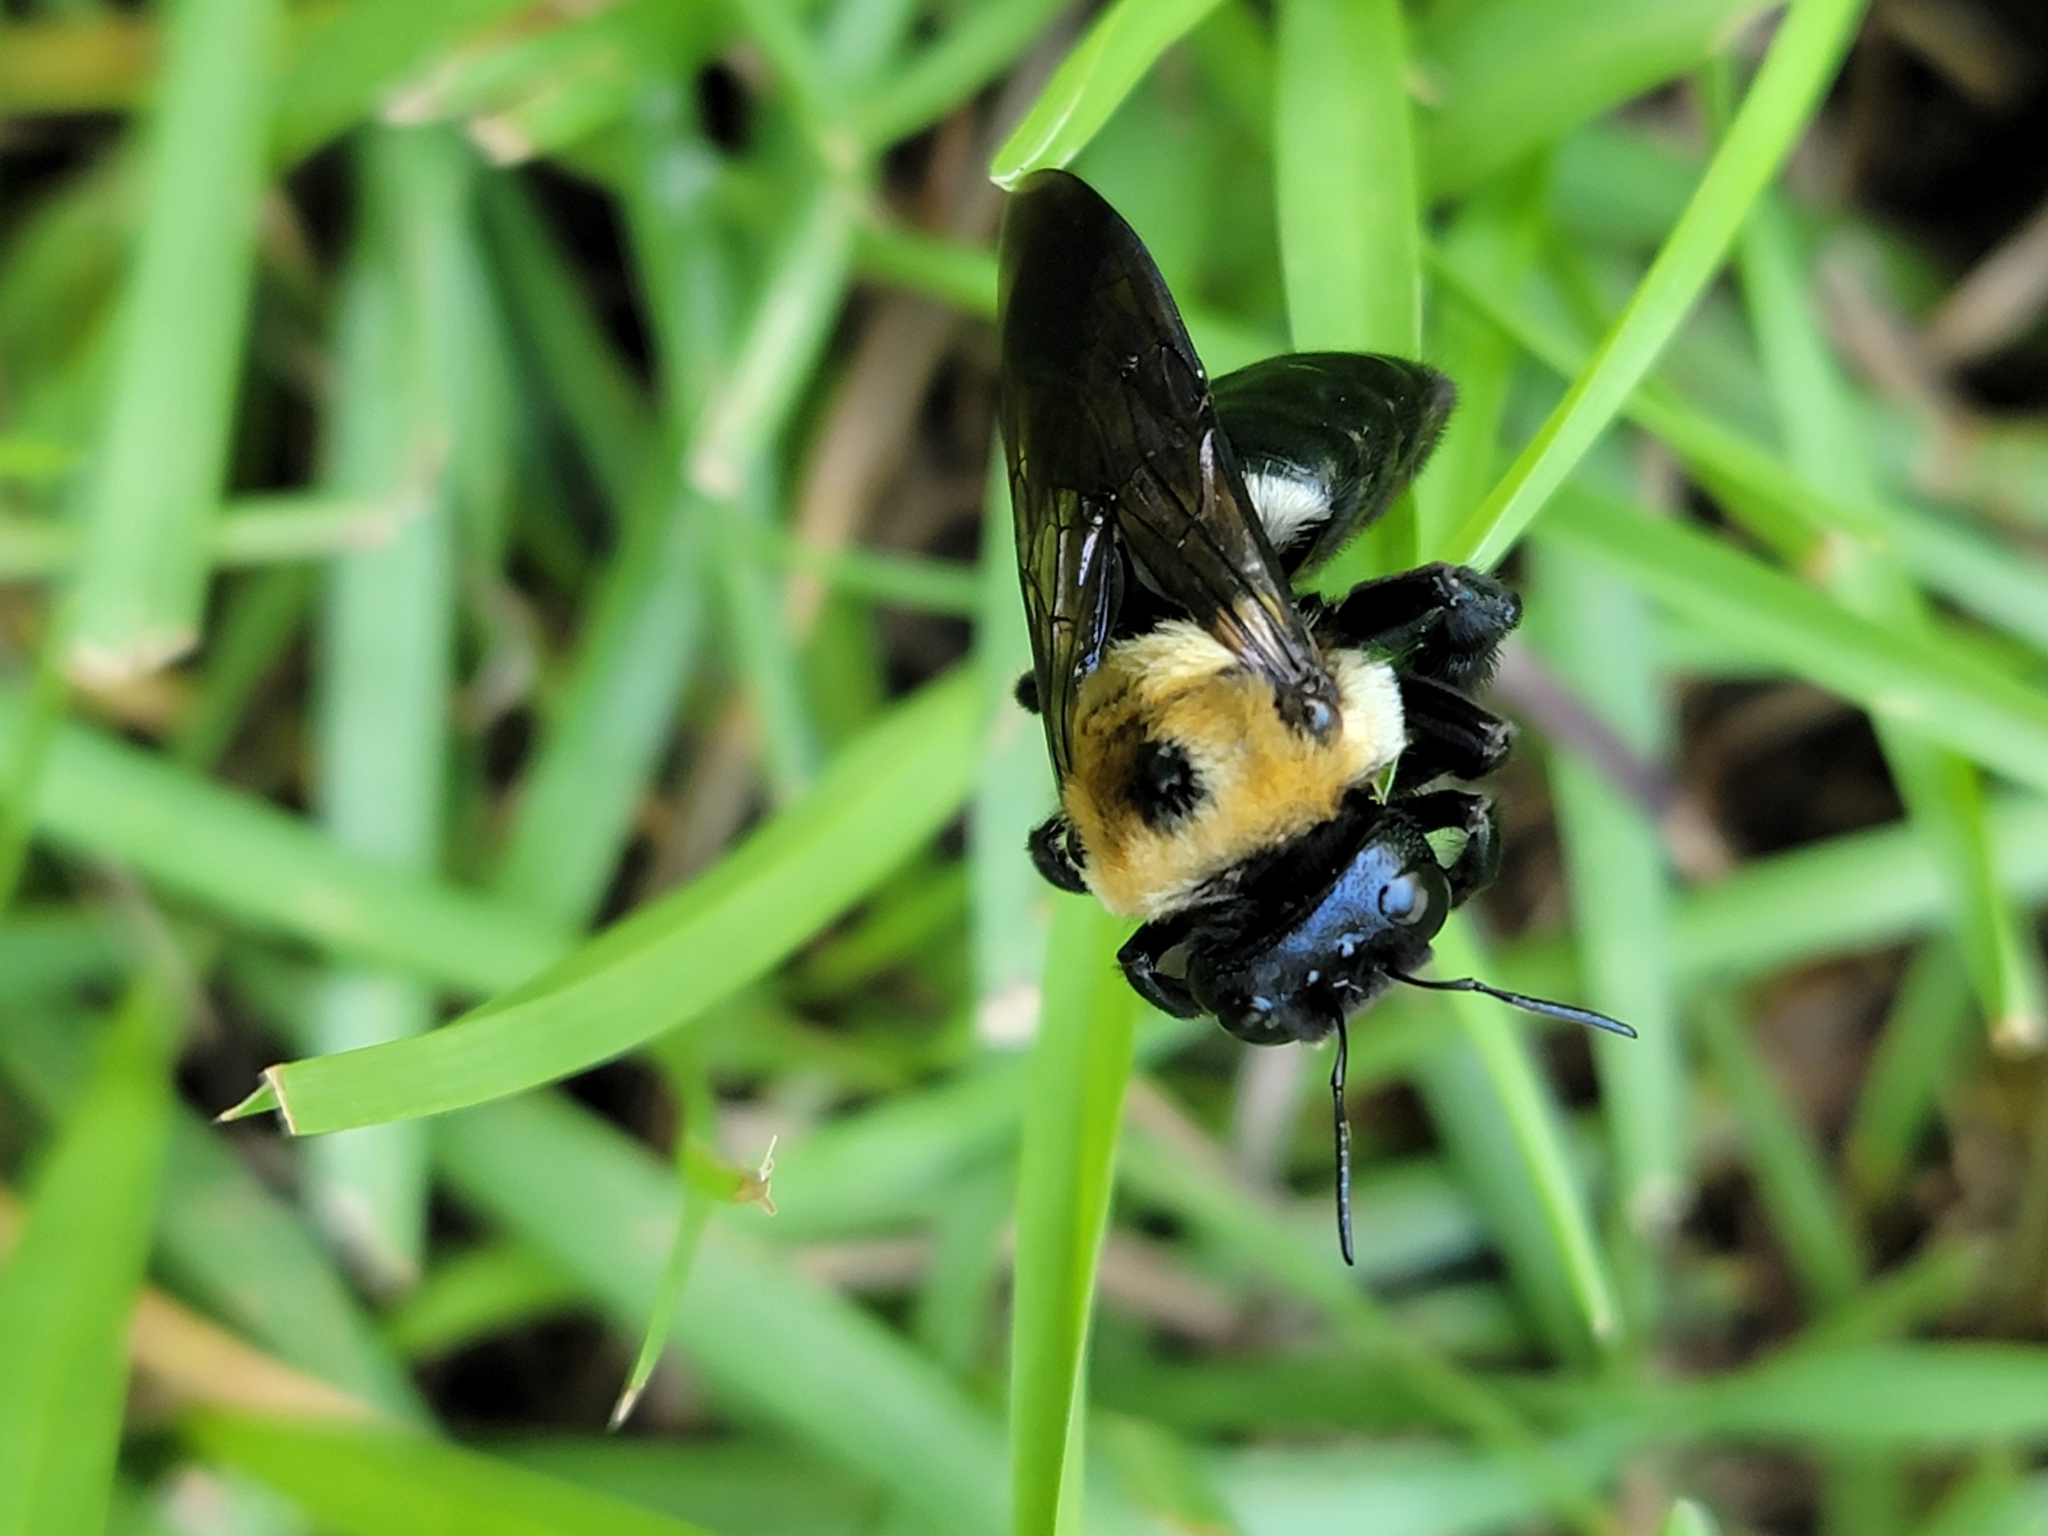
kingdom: Animalia
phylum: Arthropoda
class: Insecta
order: Hymenoptera
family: Apidae
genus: Xylocopa
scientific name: Xylocopa virginica
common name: Carpenter bee
